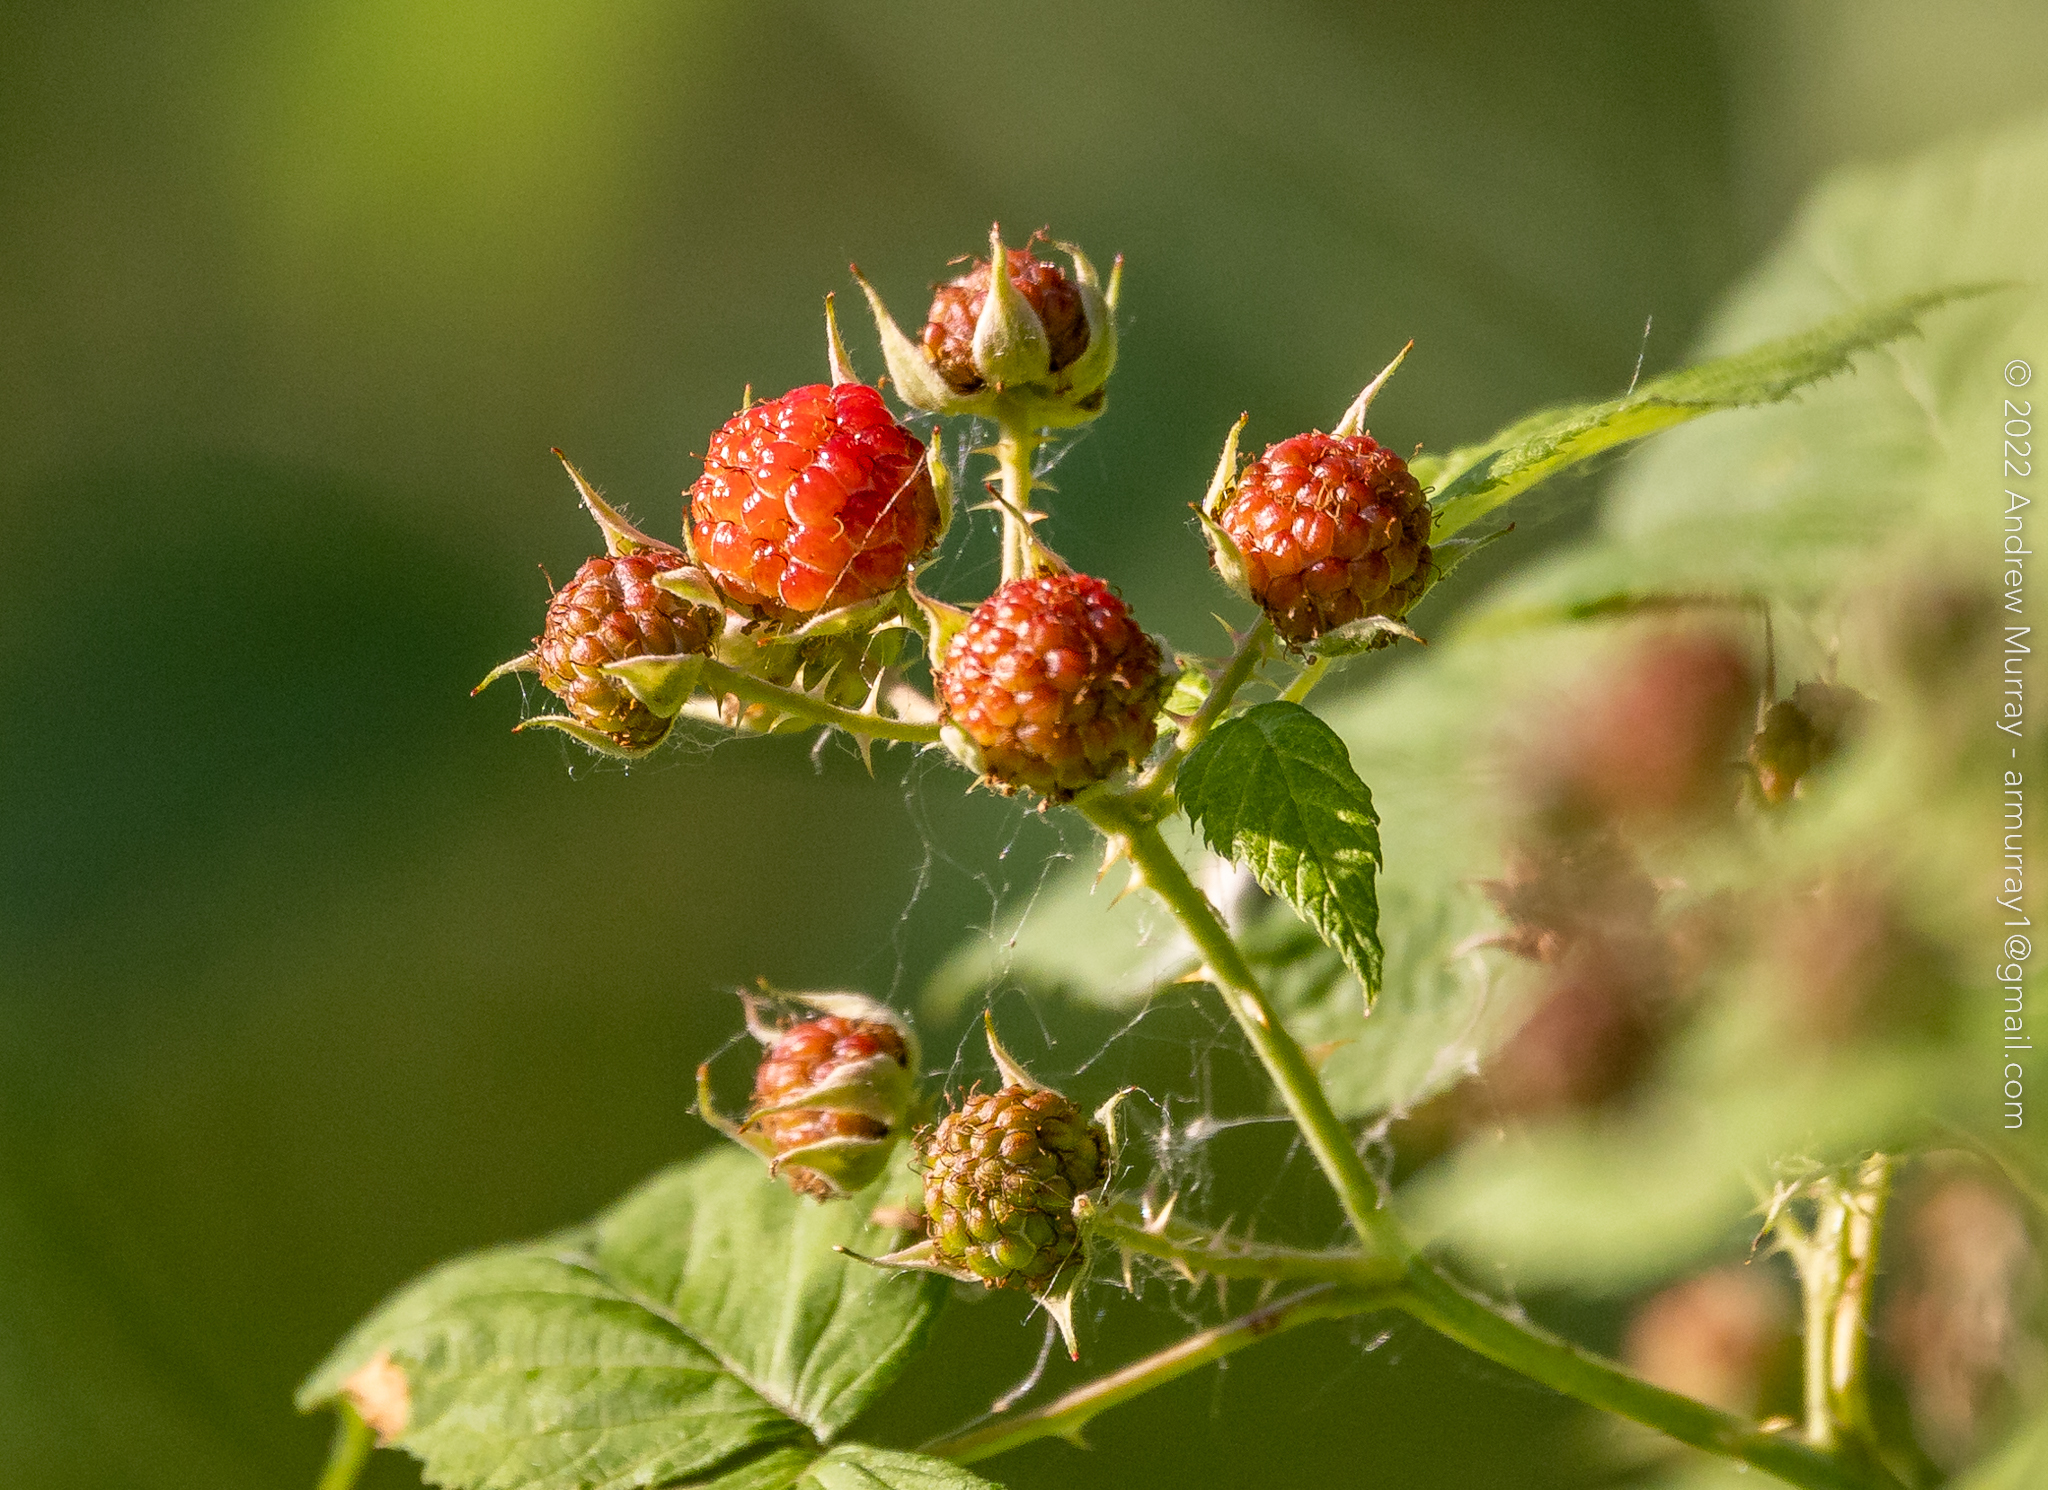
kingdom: Plantae
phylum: Tracheophyta
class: Magnoliopsida
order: Rosales
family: Rosaceae
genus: Rubus
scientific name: Rubus occidentalis
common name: Black raspberry
